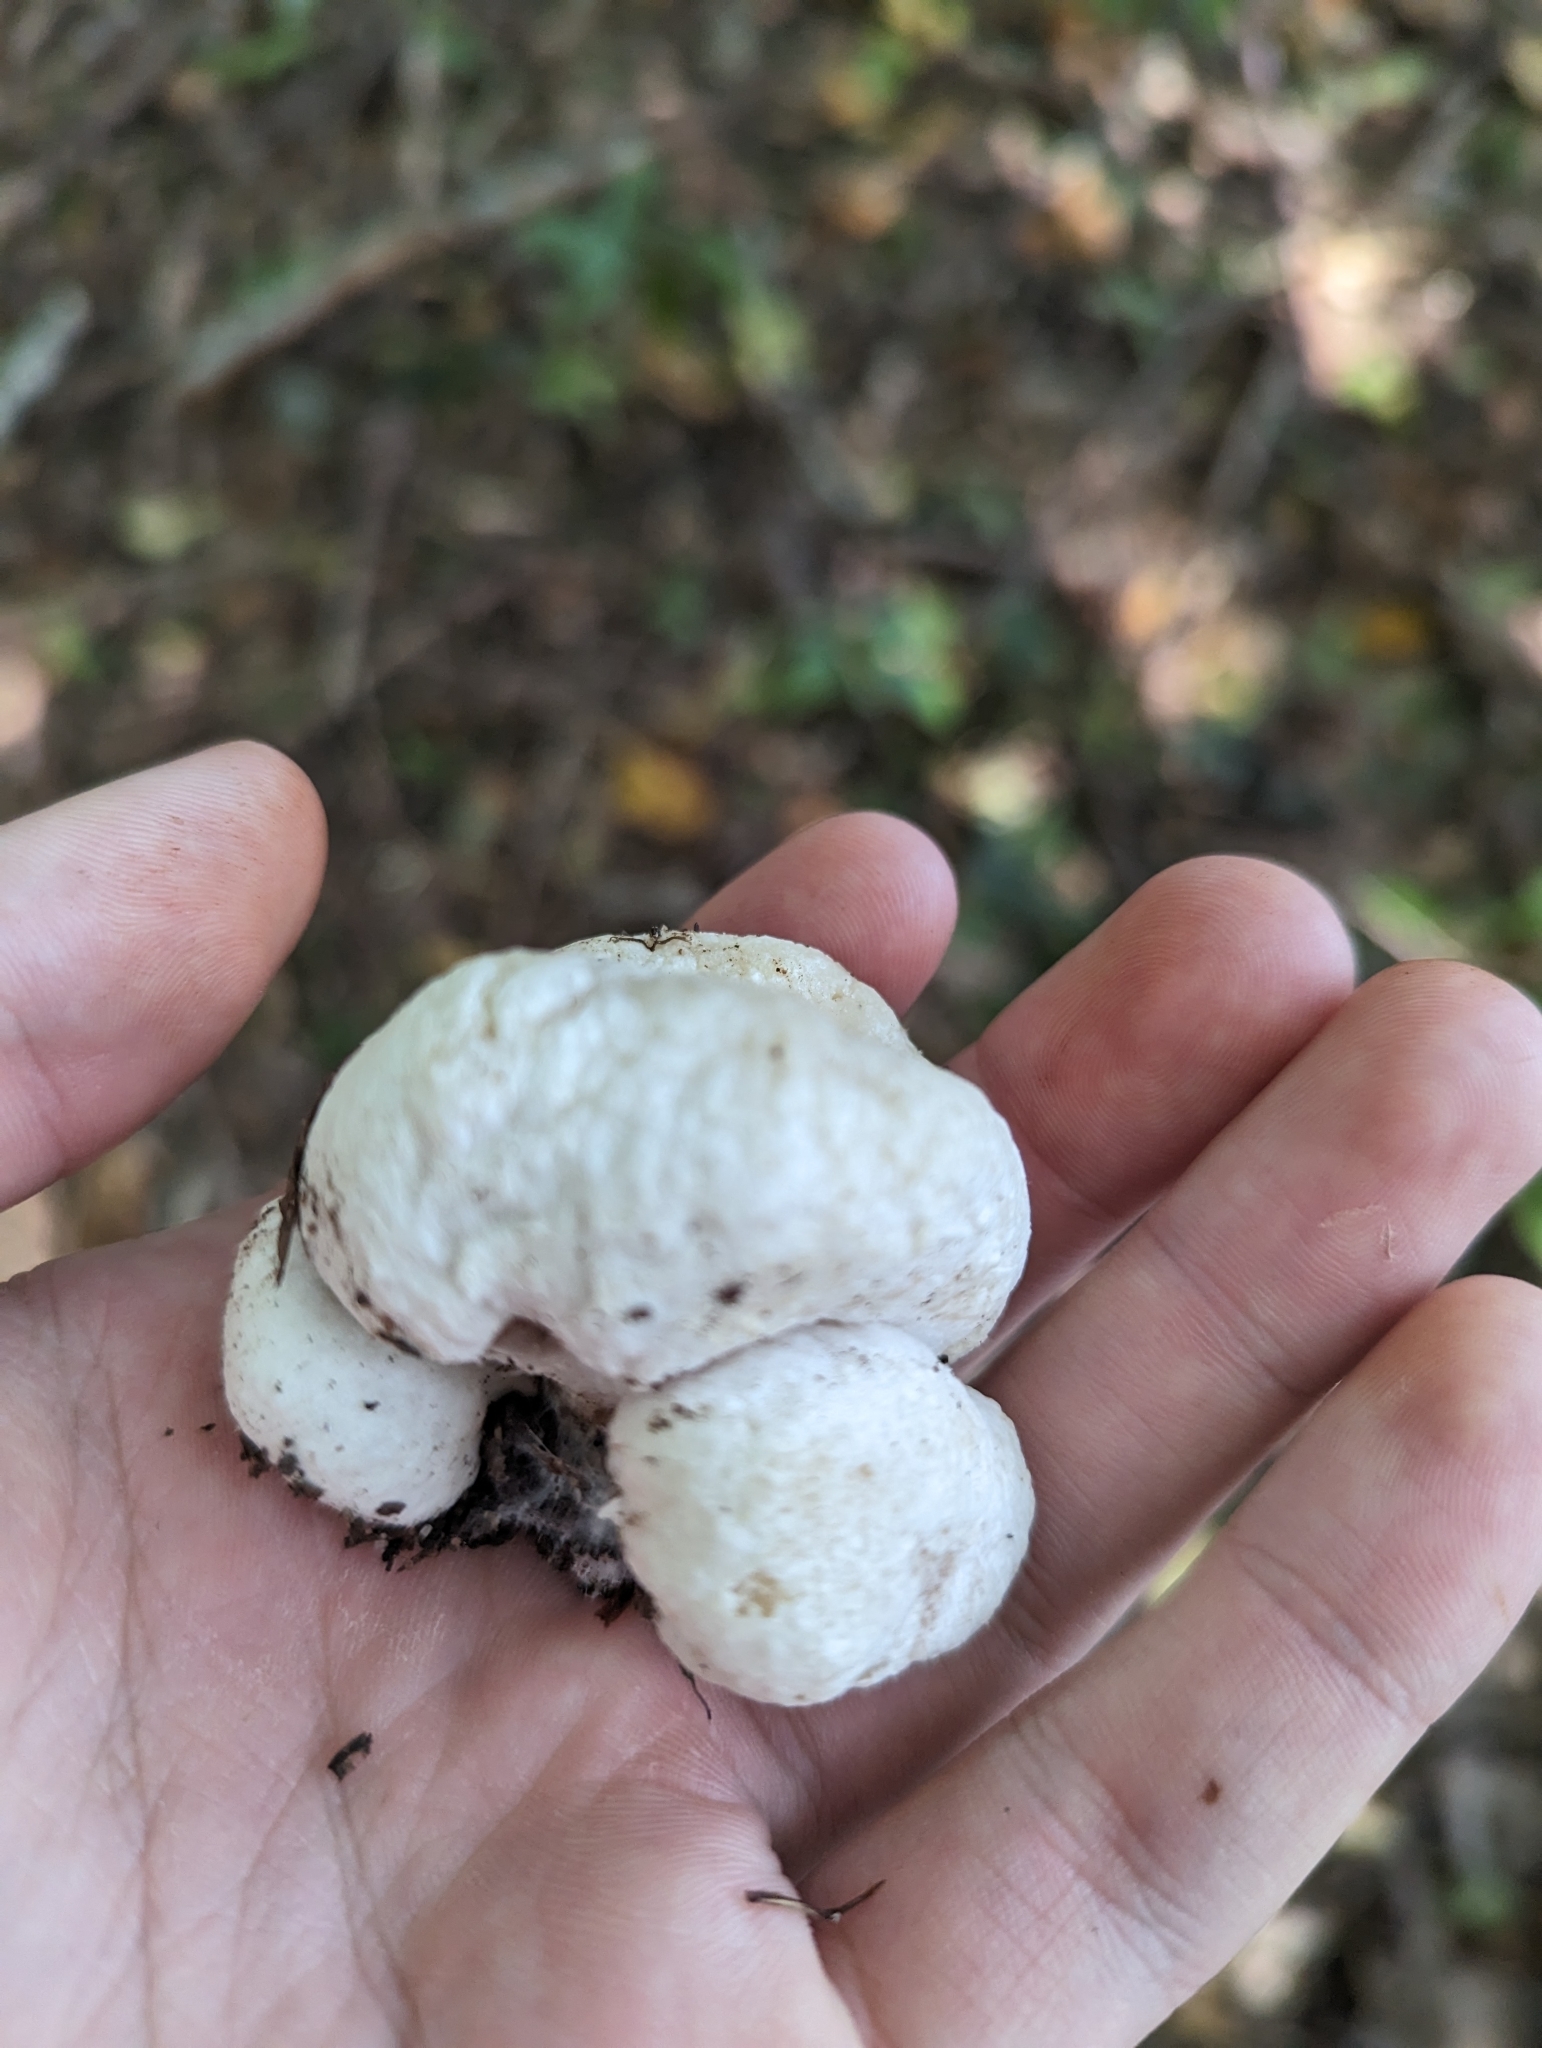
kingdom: Fungi
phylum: Basidiomycota
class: Agaricomycetes
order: Agaricales
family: Entolomataceae
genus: Entoloma
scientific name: Entoloma abortivum
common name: Aborted entoloma
